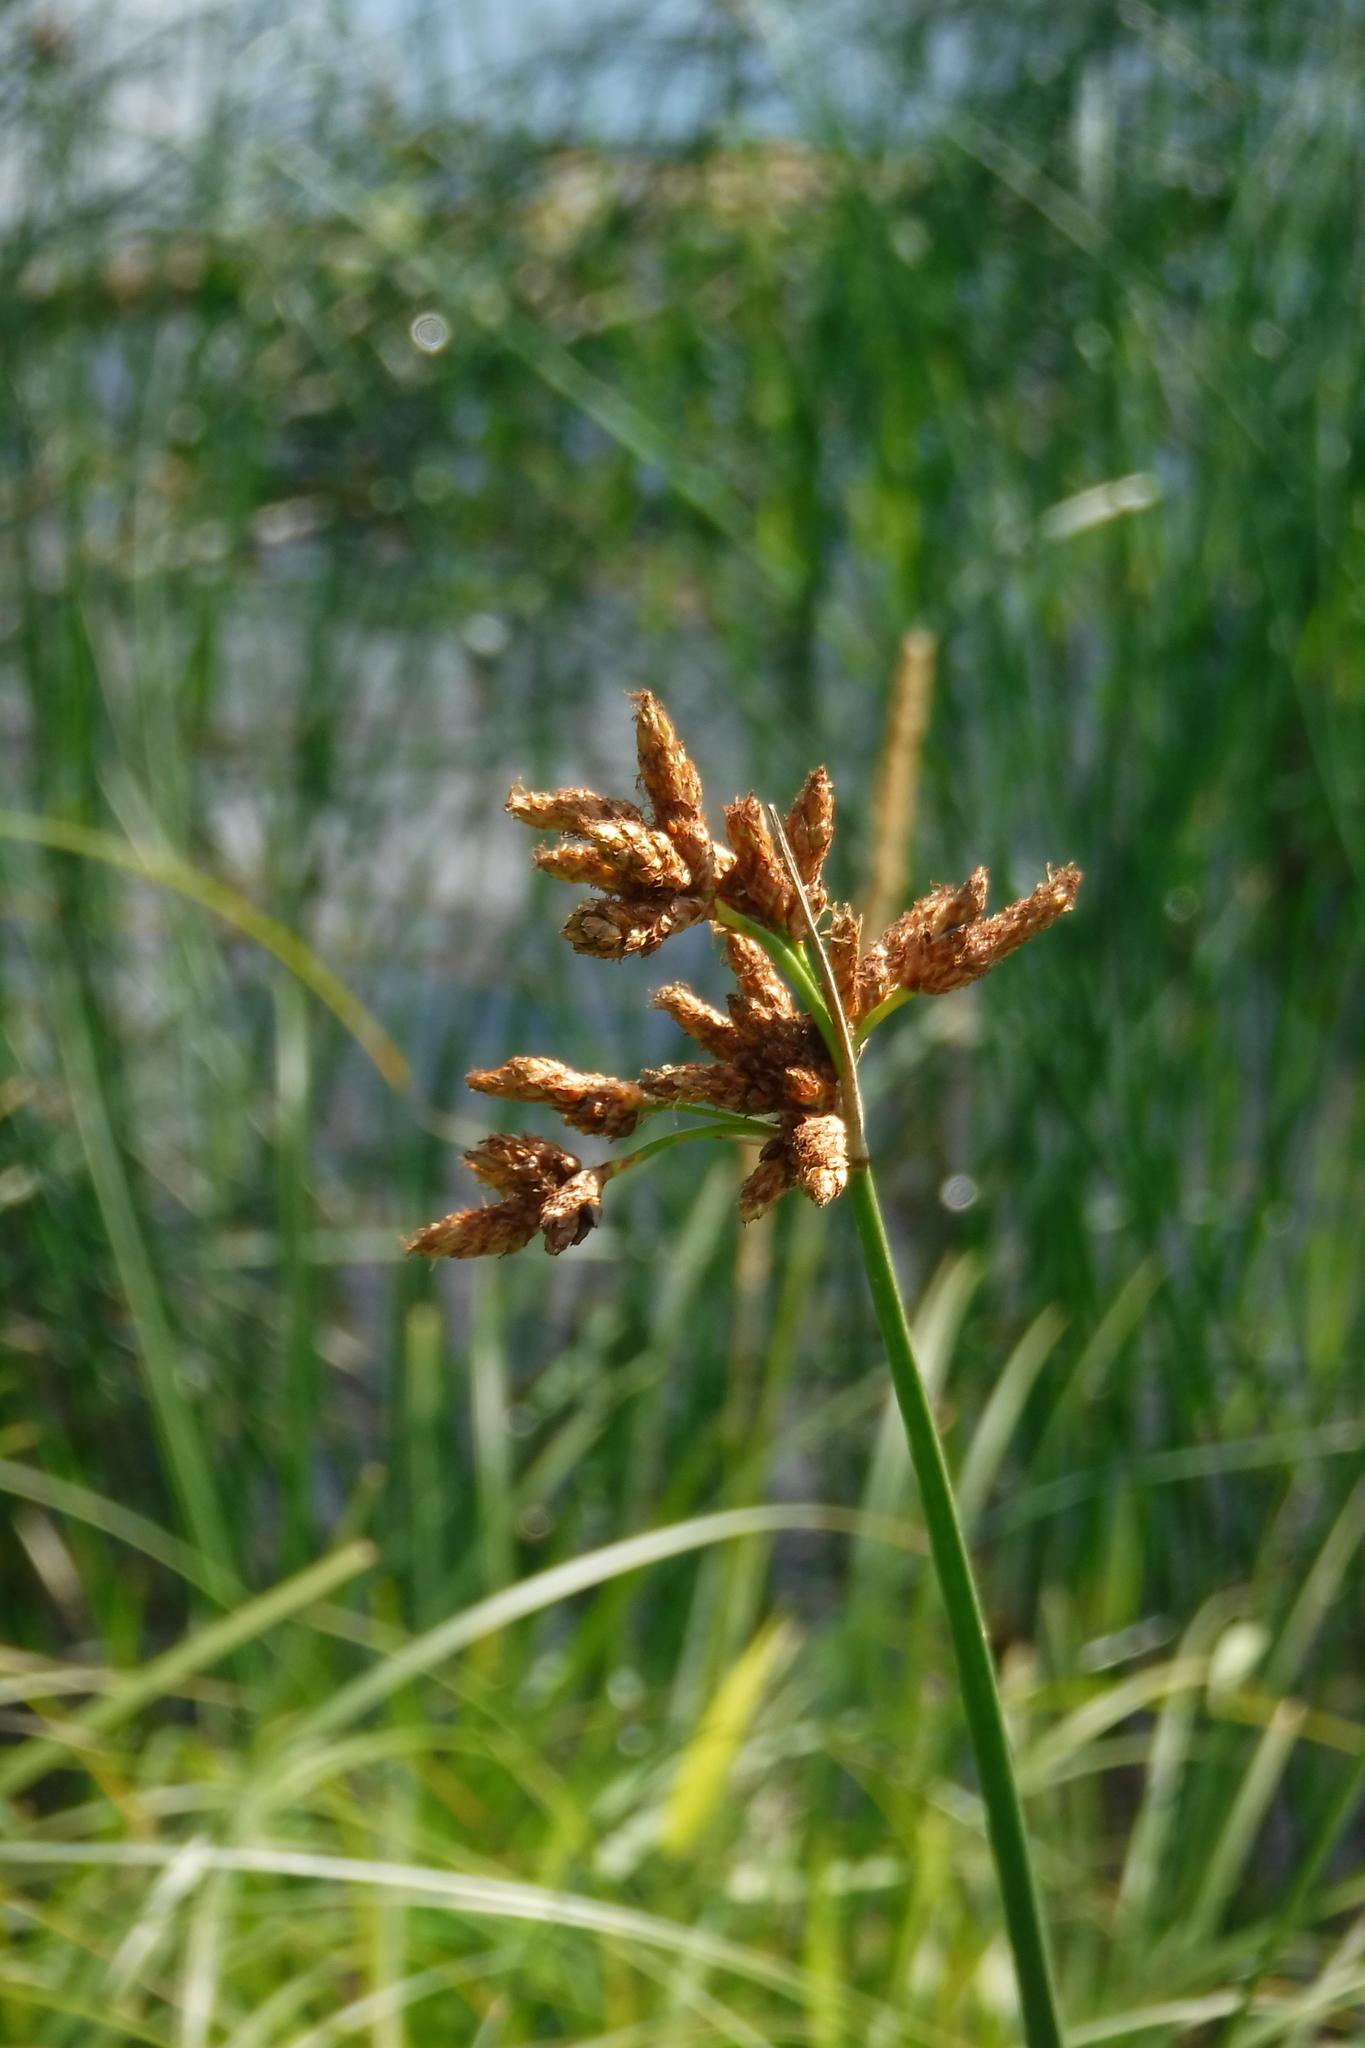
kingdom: Plantae
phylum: Tracheophyta
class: Liliopsida
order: Poales
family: Cyperaceae
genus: Schoenoplectus
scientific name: Schoenoplectus lacustris
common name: Common club-rush
